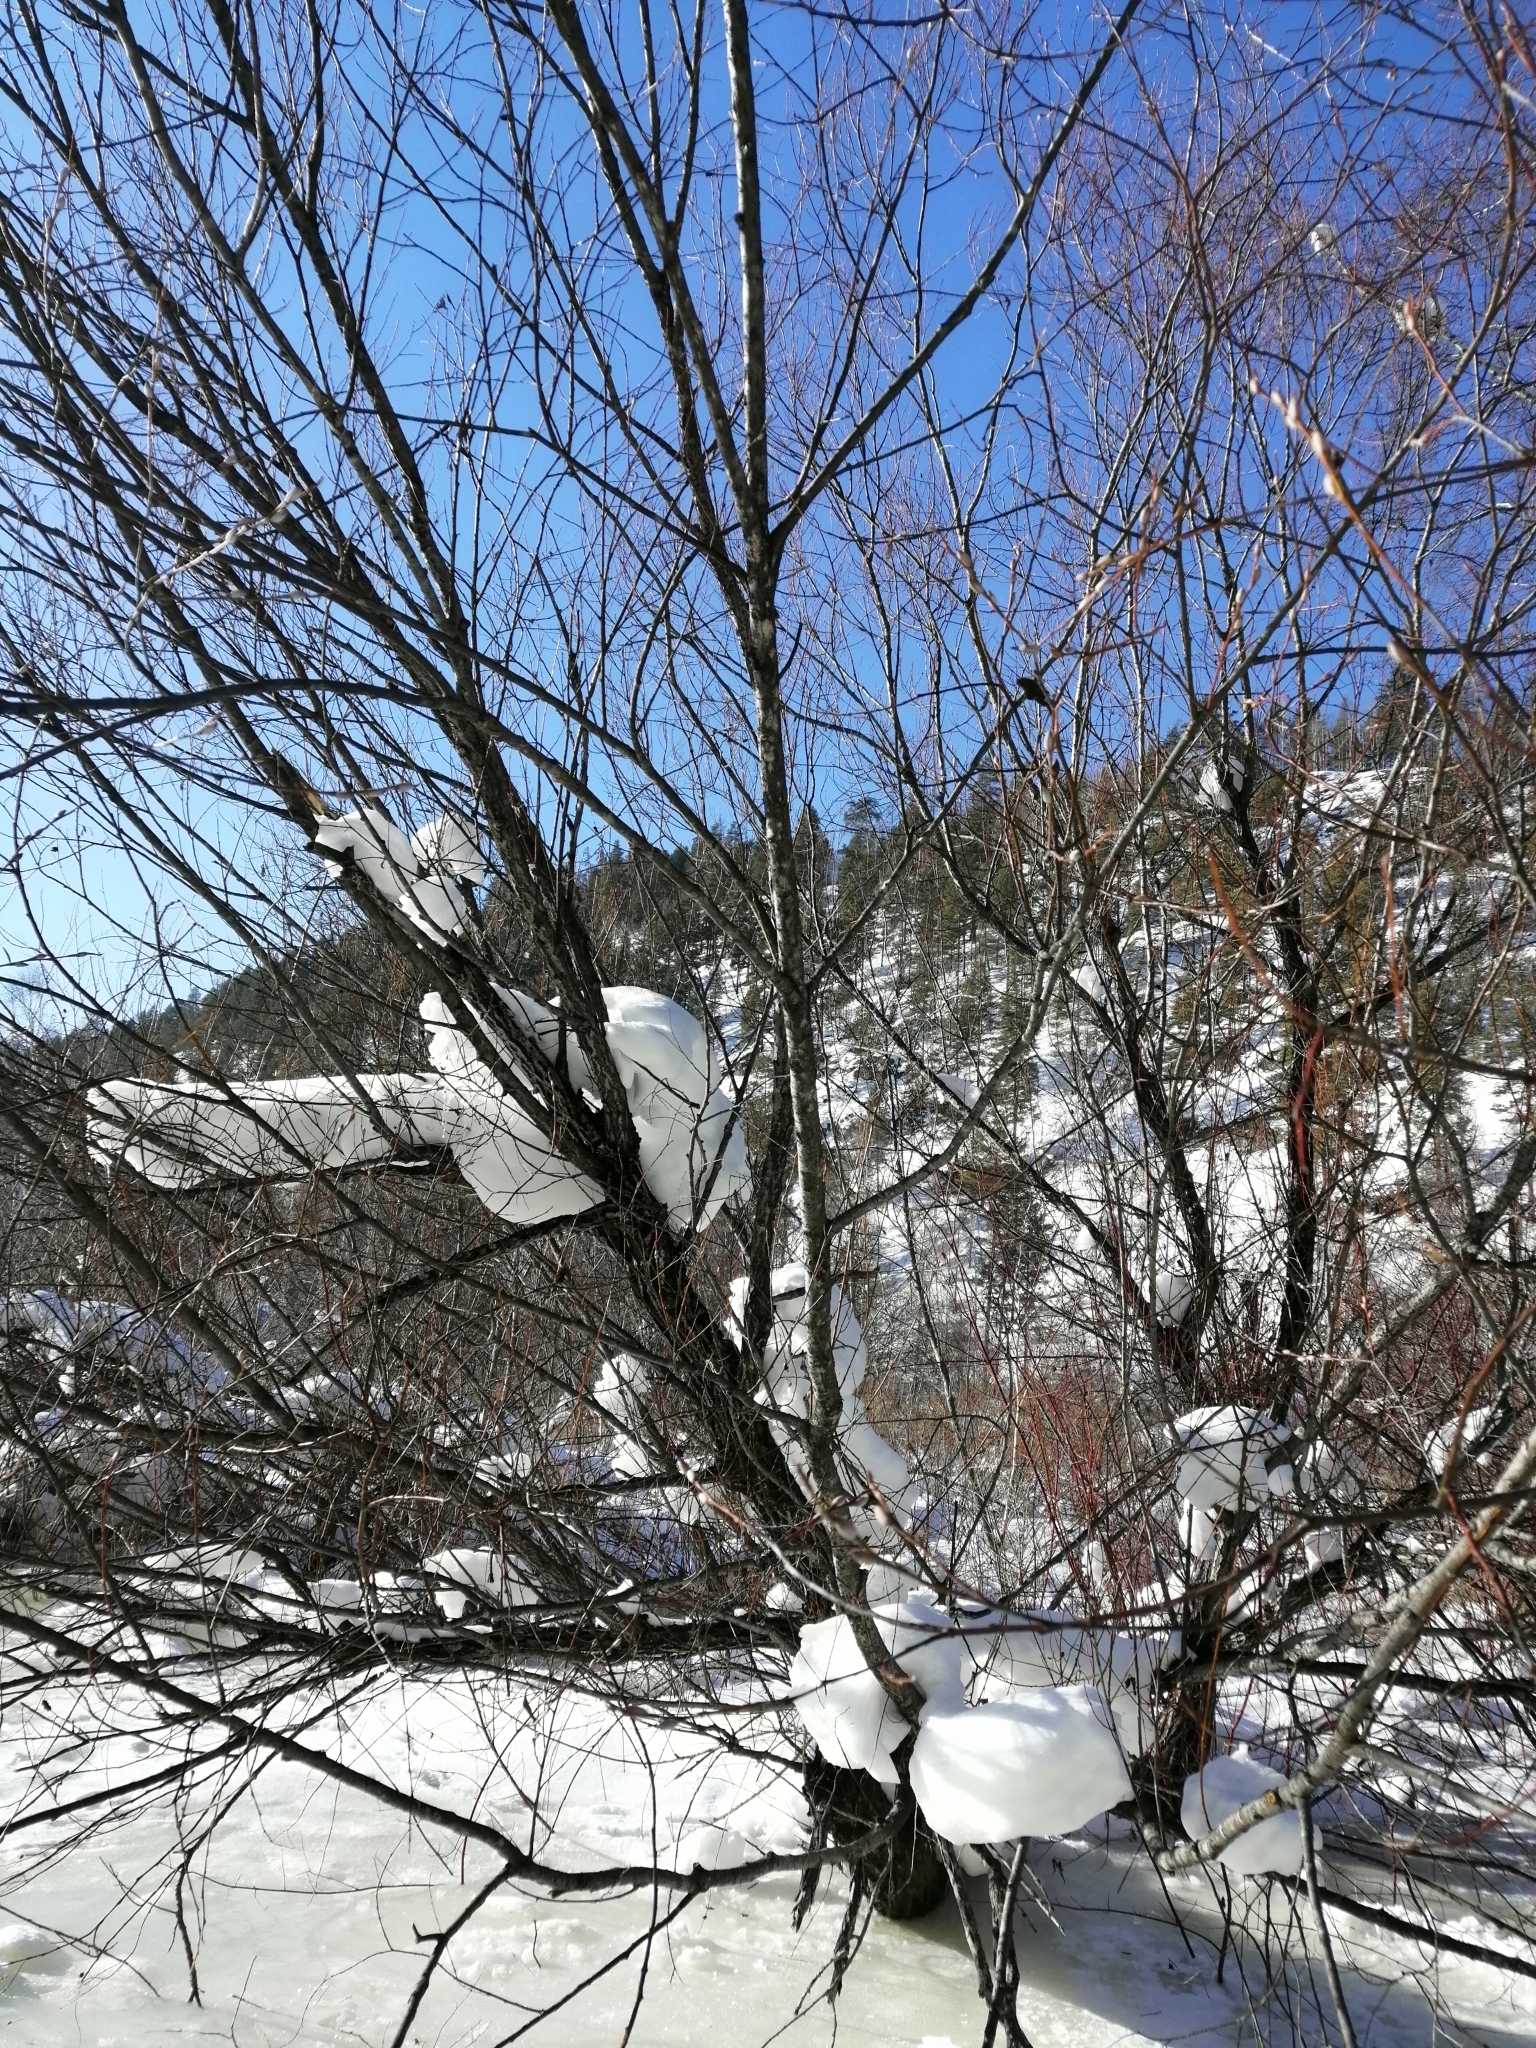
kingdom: Plantae
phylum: Tracheophyta
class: Magnoliopsida
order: Malpighiales
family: Salicaceae
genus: Salix
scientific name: Salix rorida
